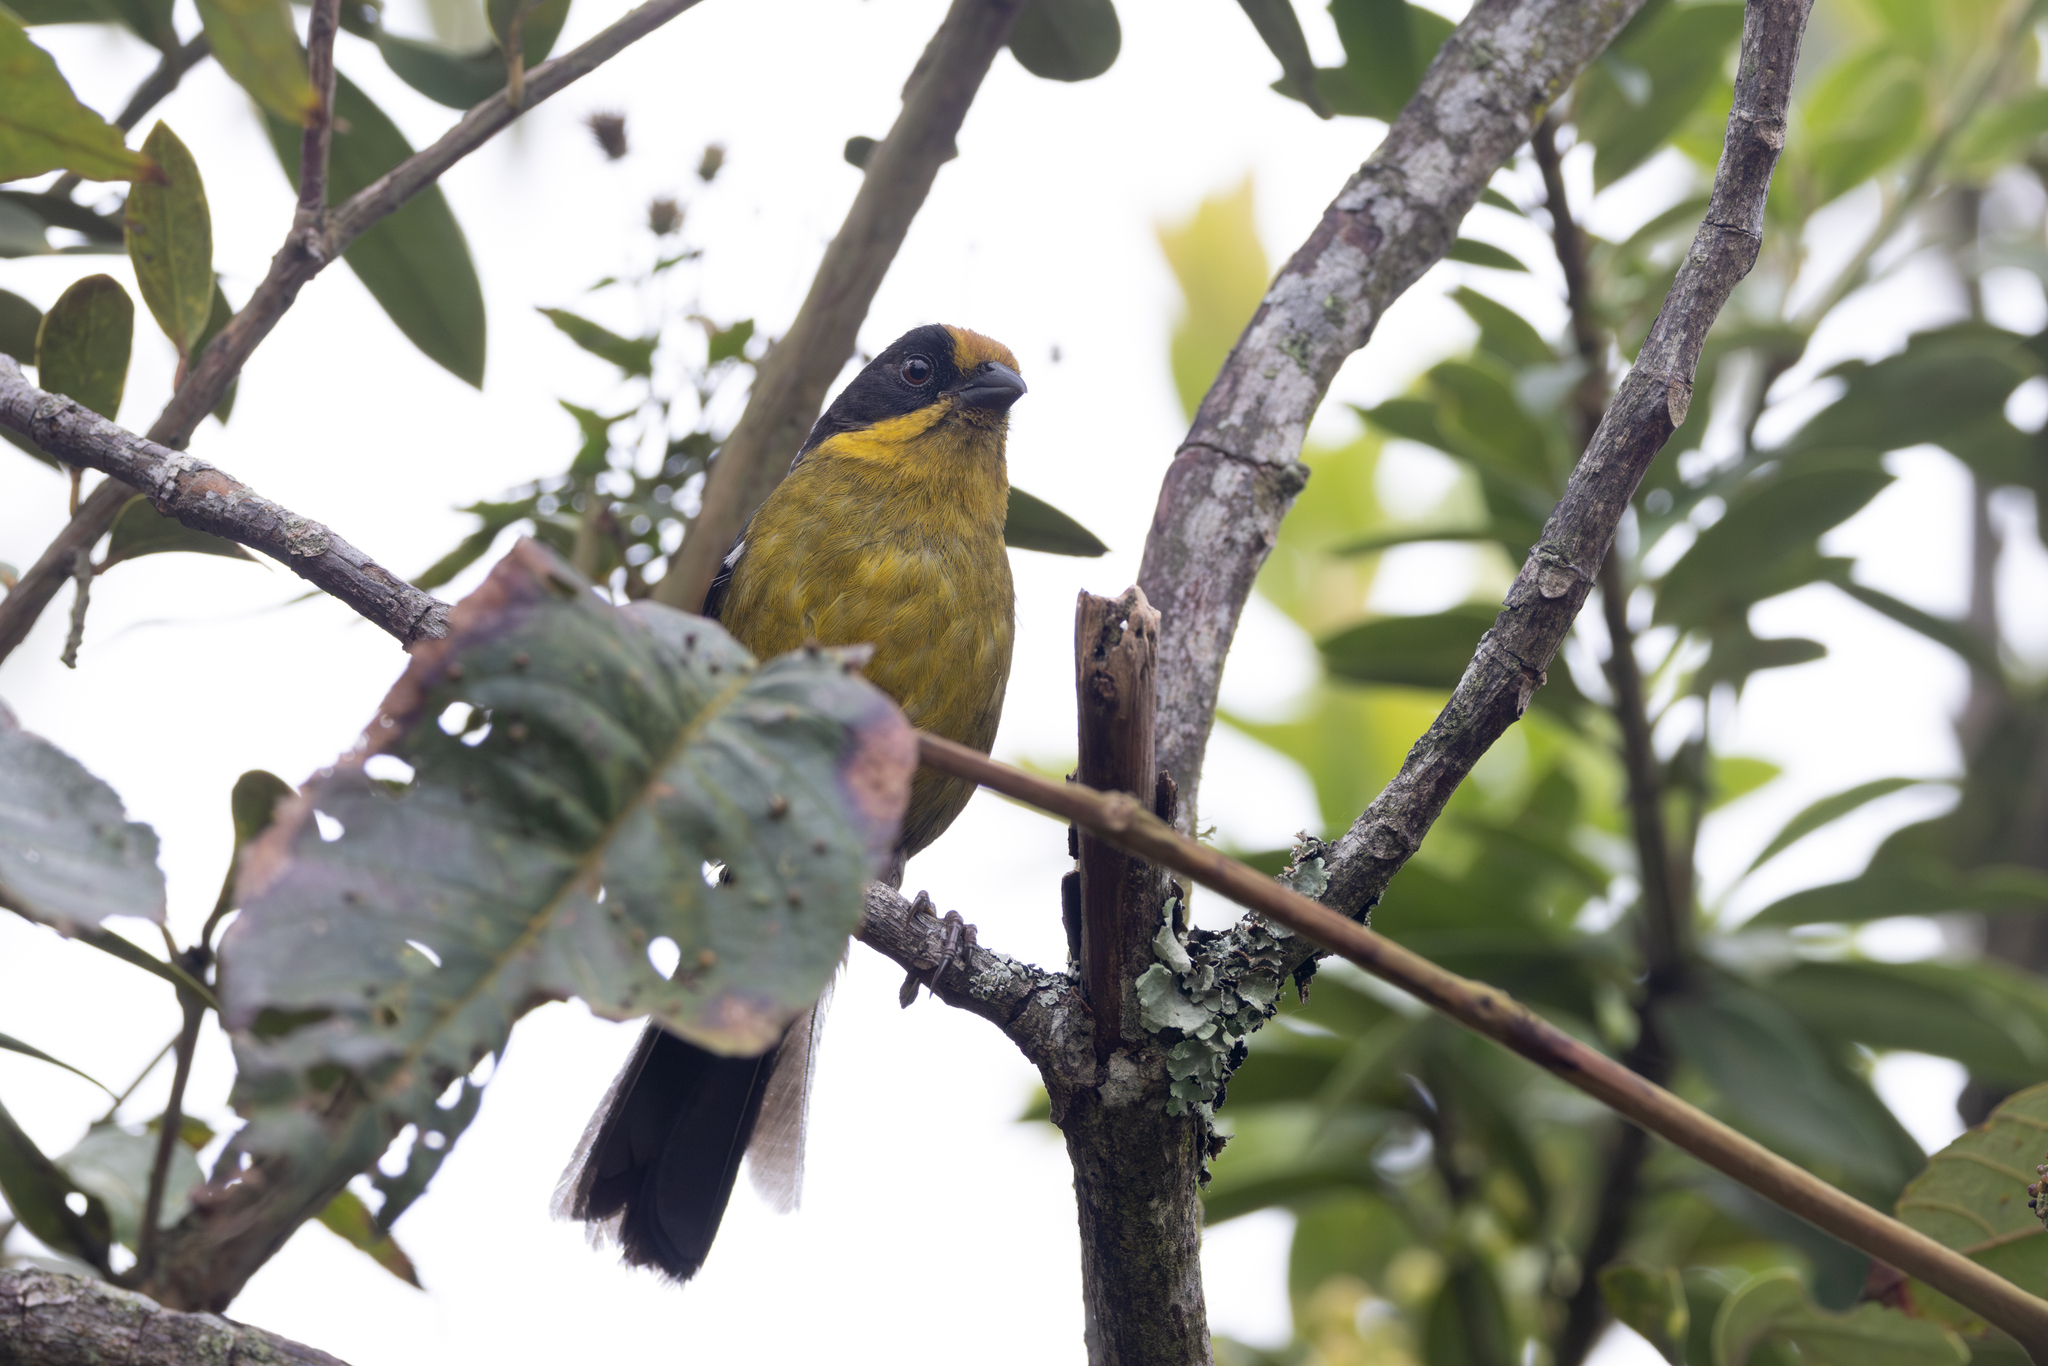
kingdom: Animalia
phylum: Chordata
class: Aves
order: Passeriformes
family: Passerellidae
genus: Atlapetes
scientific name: Atlapetes pallidinucha
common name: Pale-naped brushfinch
